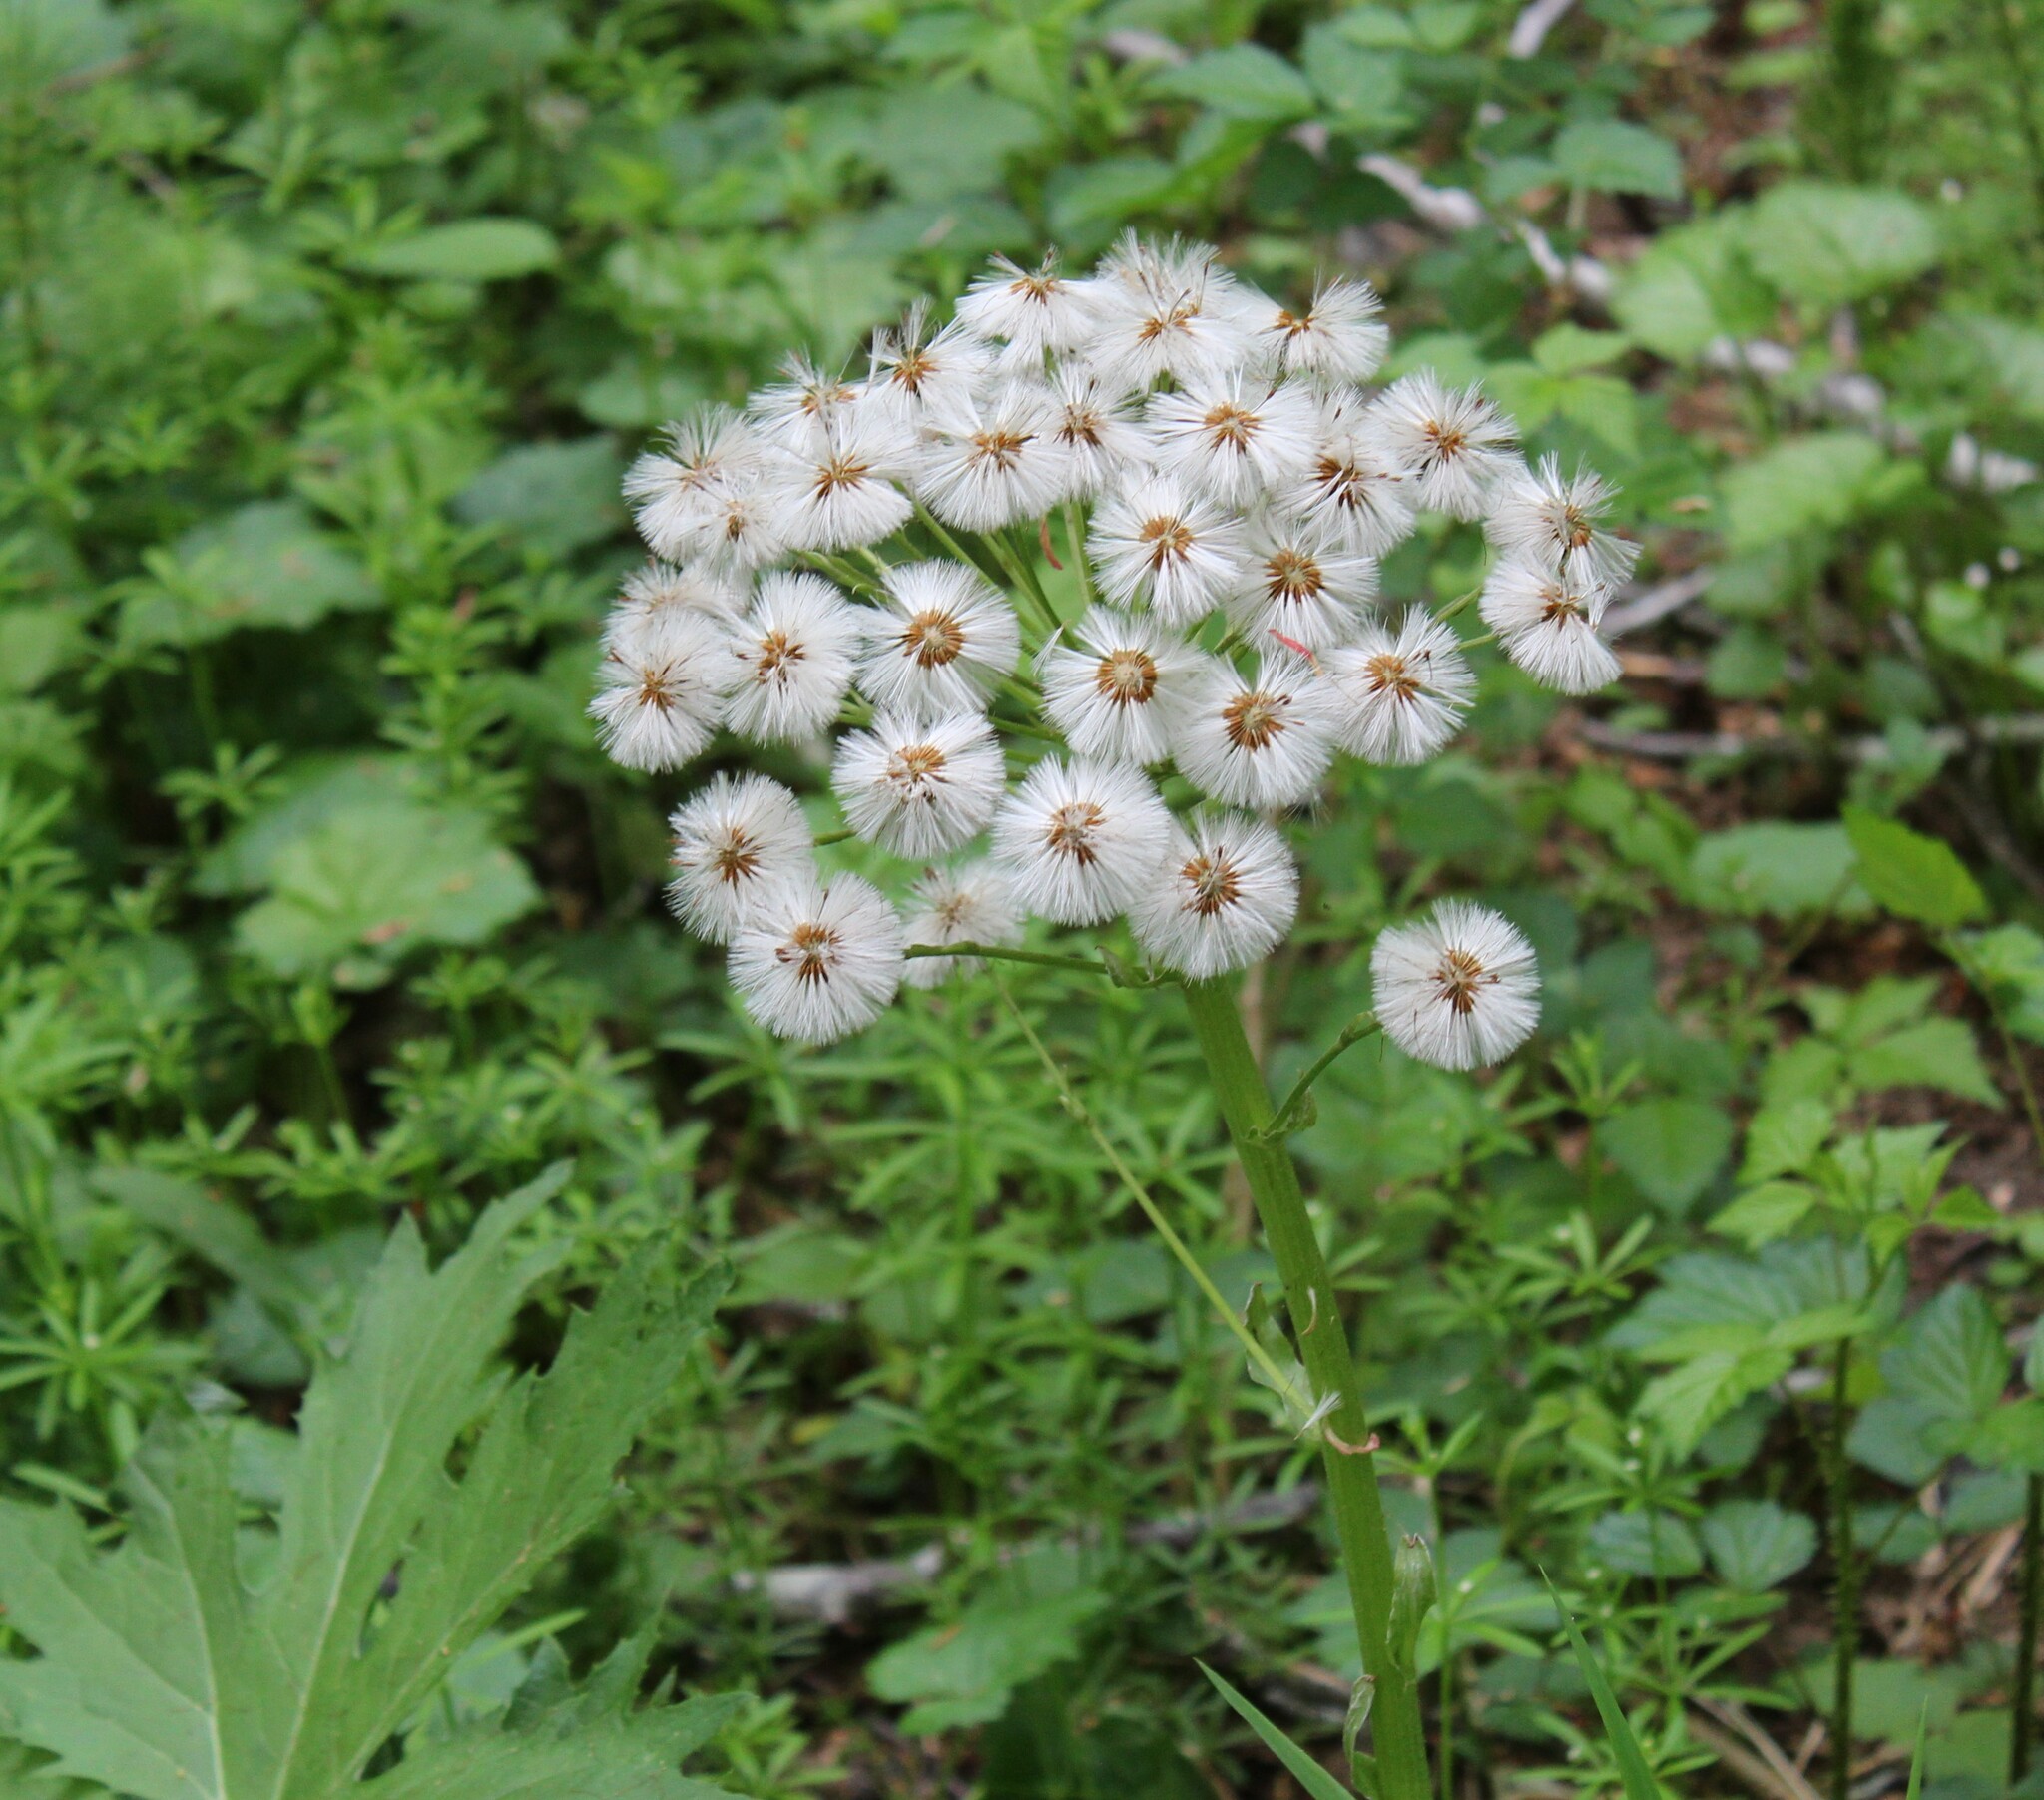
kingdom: Plantae
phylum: Tracheophyta
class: Magnoliopsida
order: Asterales
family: Asteraceae
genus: Petasites
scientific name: Petasites frigidus
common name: Arctic butterbur
